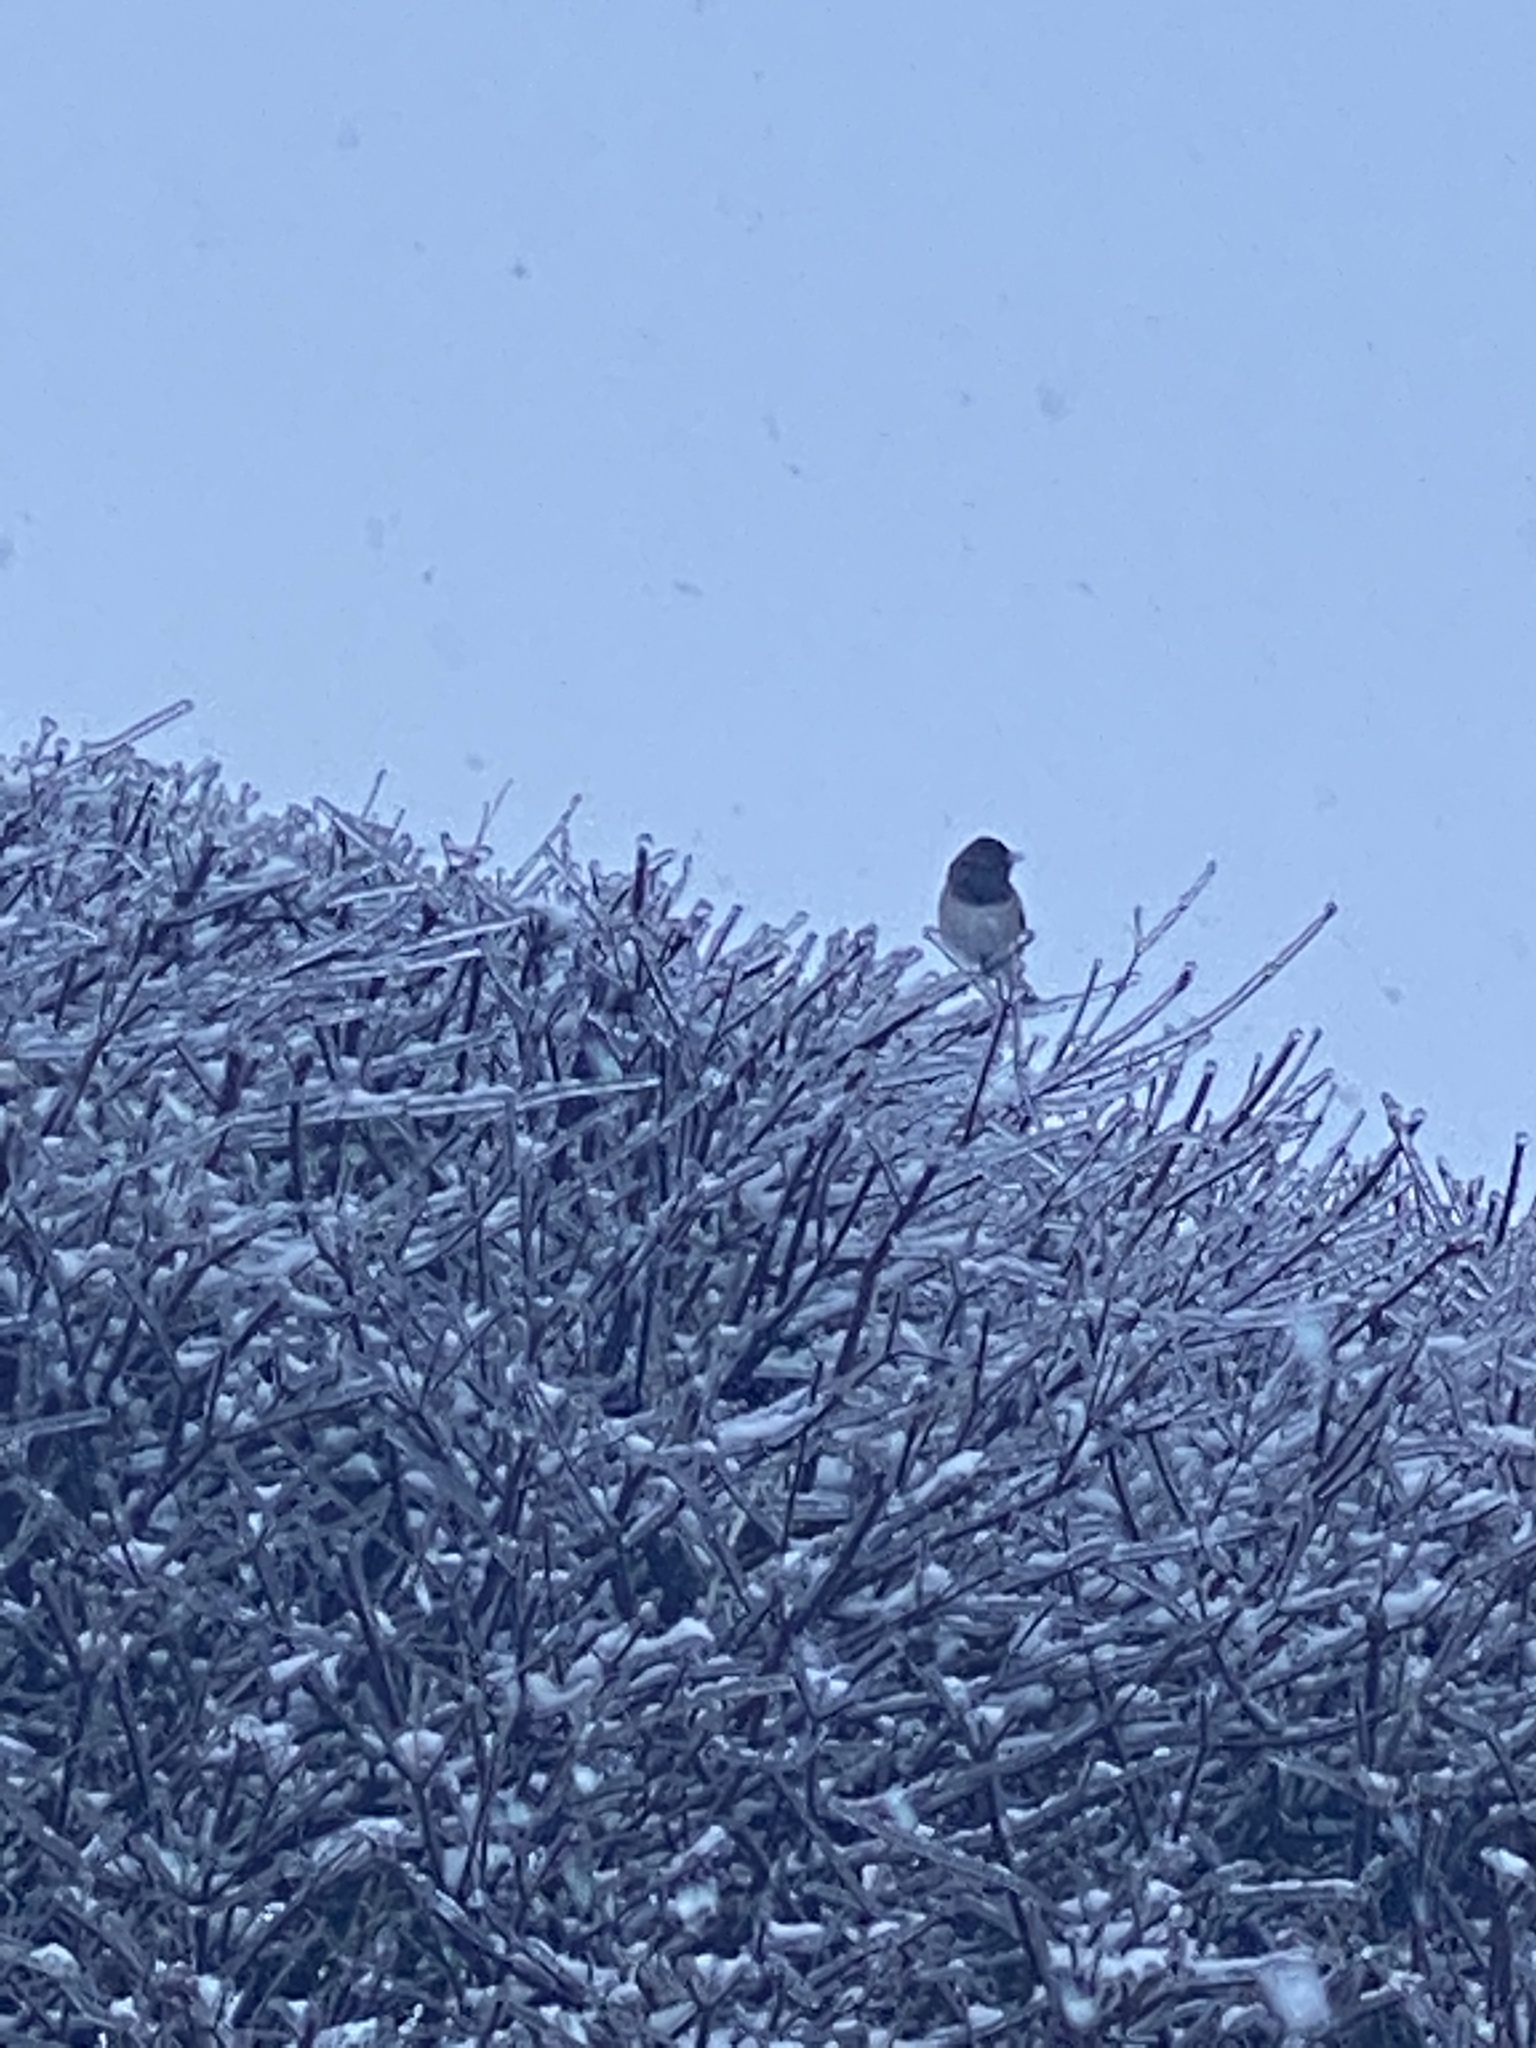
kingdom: Animalia
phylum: Chordata
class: Aves
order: Passeriformes
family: Passerellidae
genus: Junco
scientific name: Junco hyemalis
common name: Dark-eyed junco
